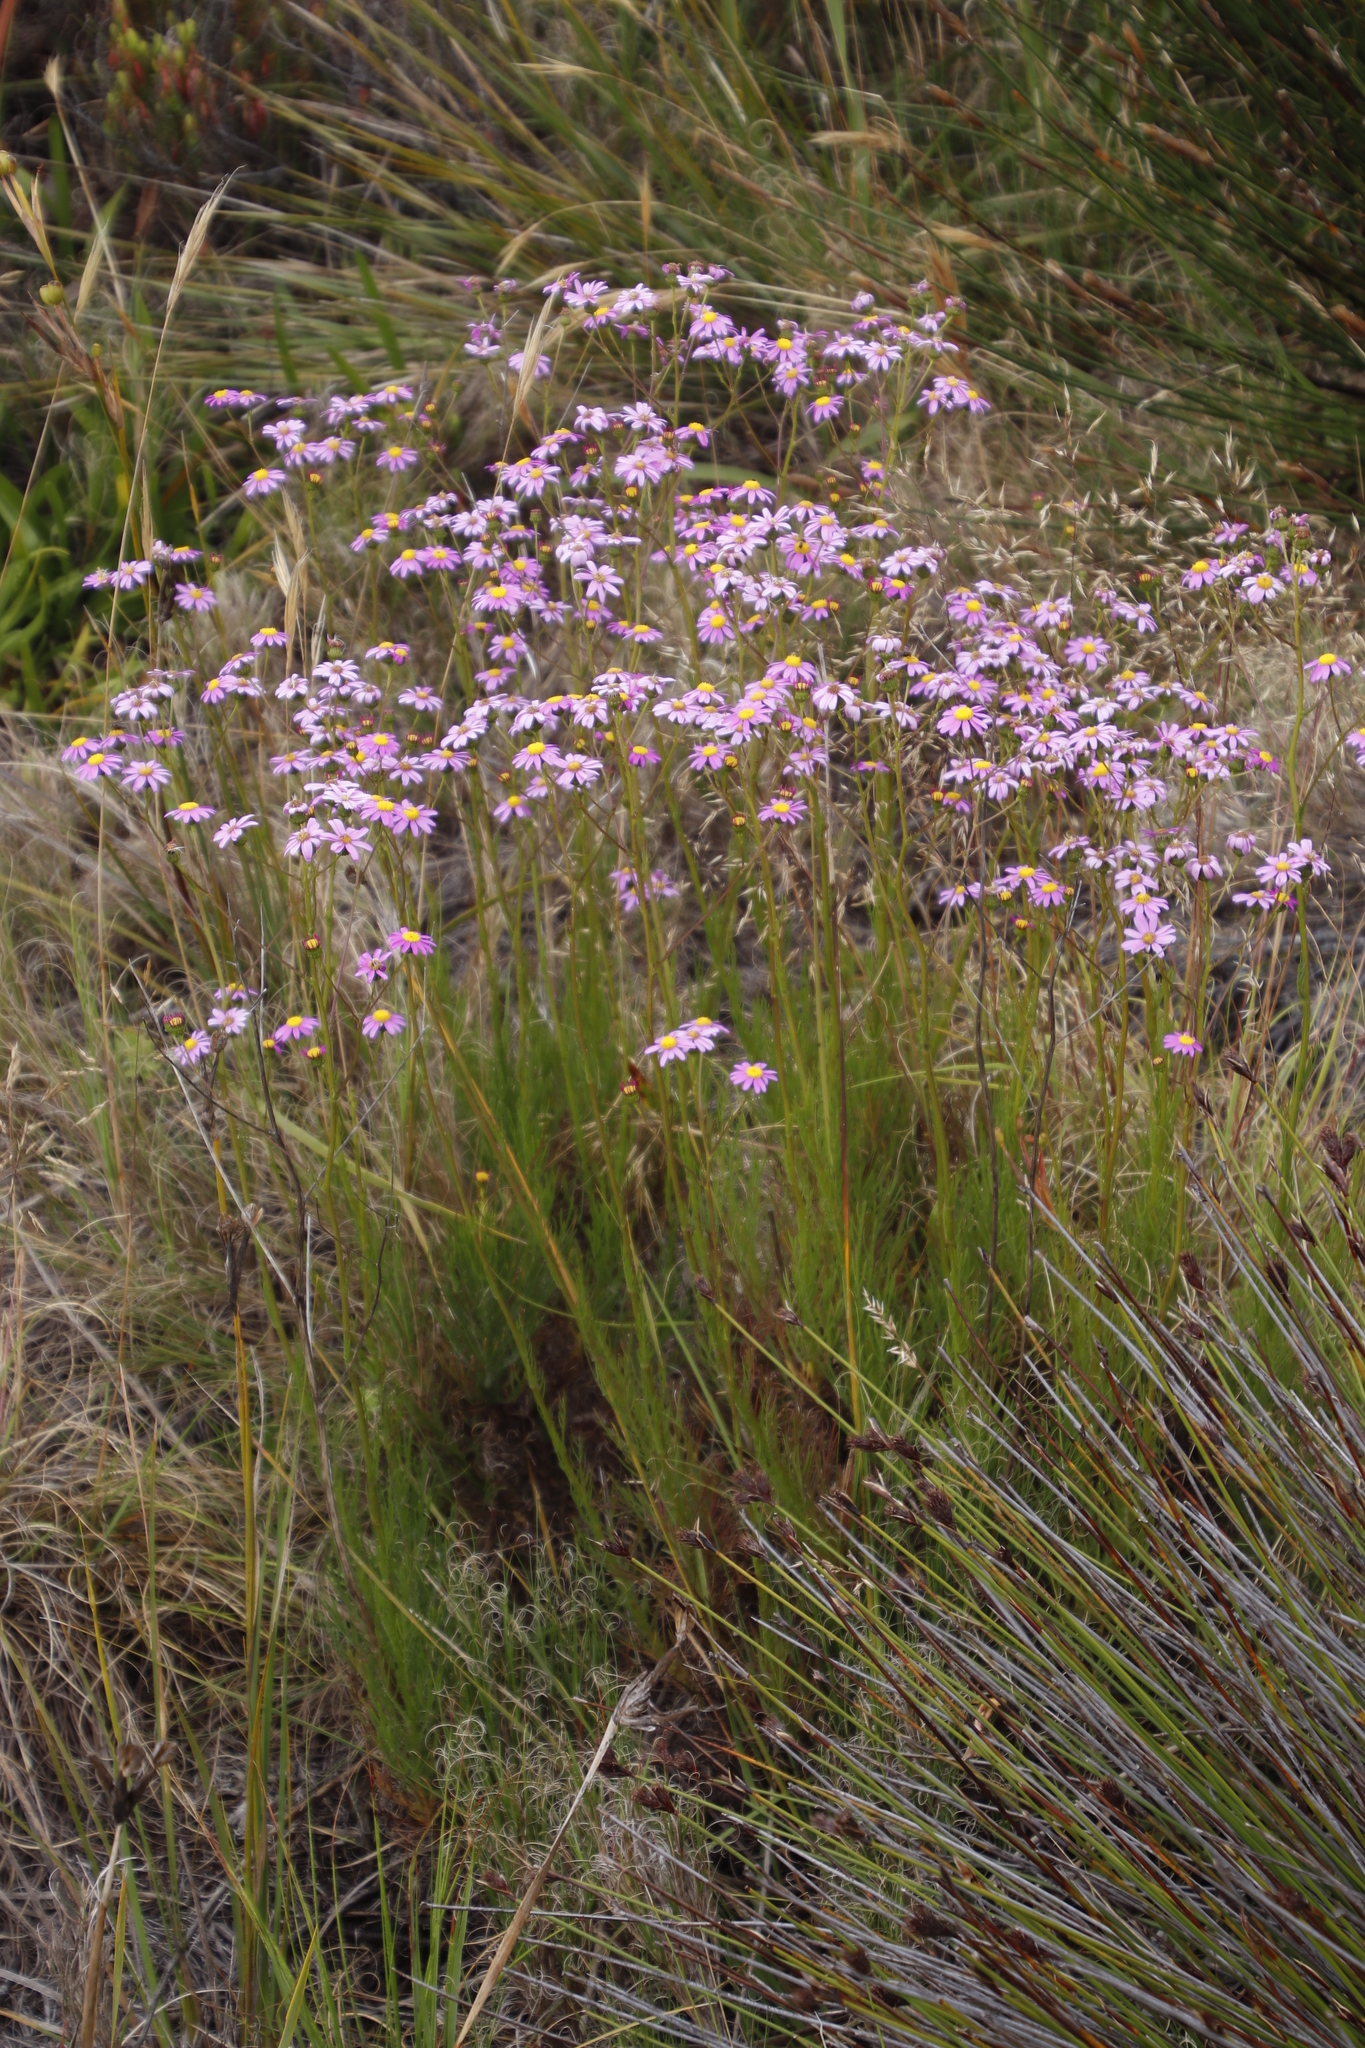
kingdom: Plantae
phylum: Tracheophyta
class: Magnoliopsida
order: Asterales
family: Asteraceae
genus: Senecio
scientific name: Senecio umbellatus
